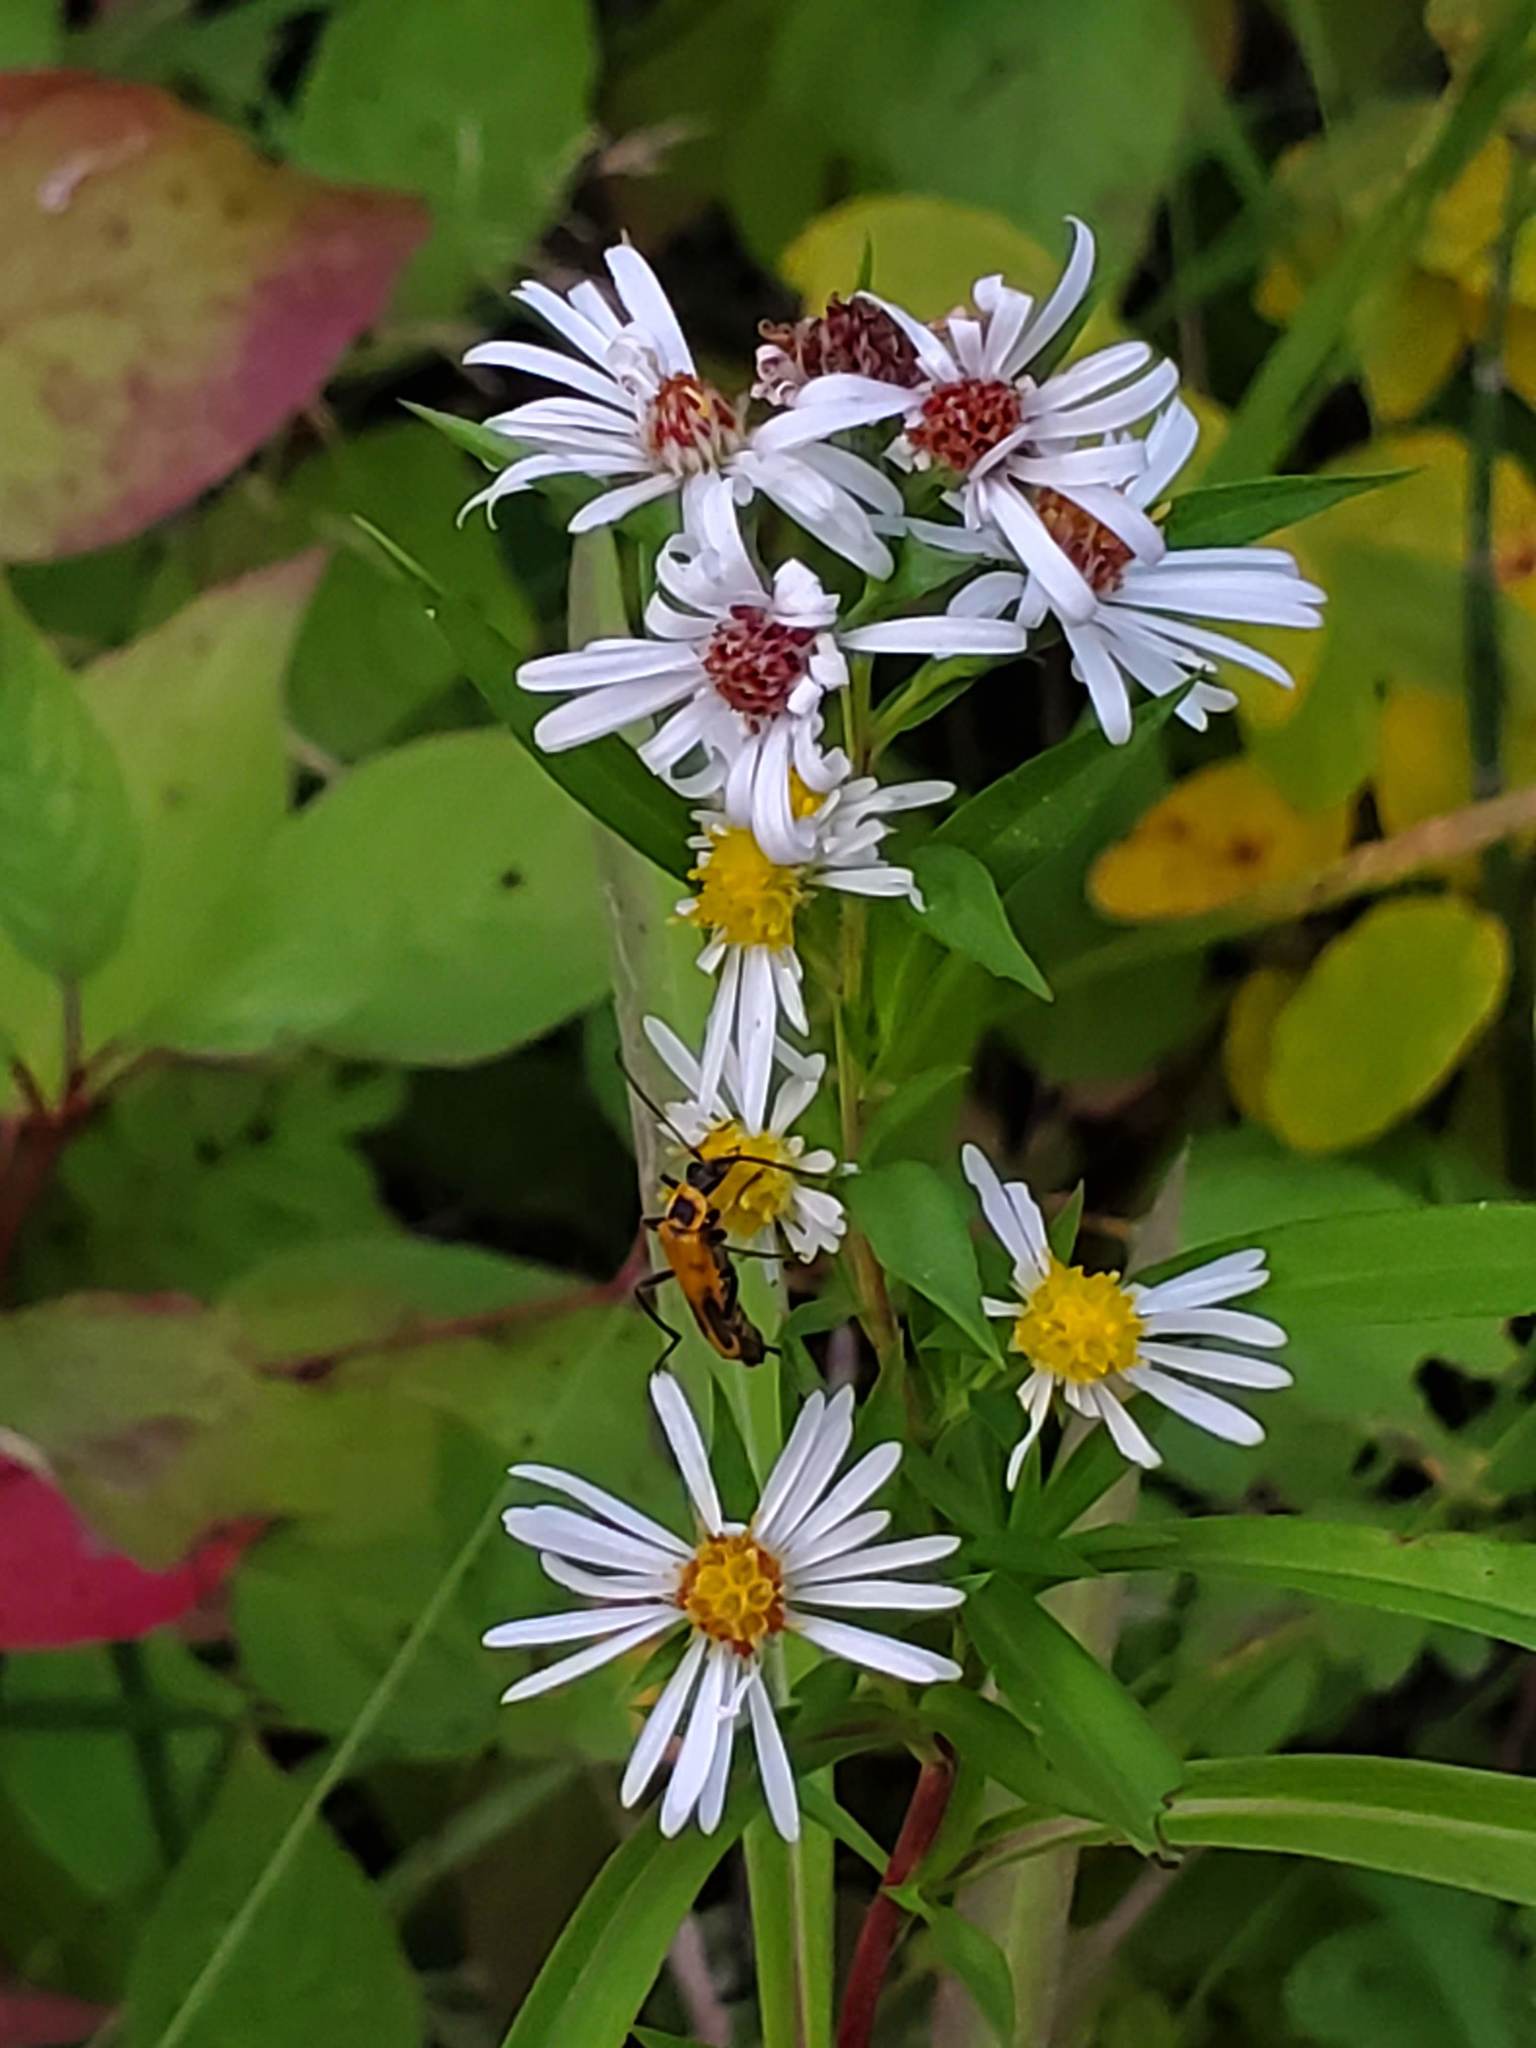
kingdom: Plantae
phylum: Tracheophyta
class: Magnoliopsida
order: Asterales
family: Asteraceae
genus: Symphyotrichum
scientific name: Symphyotrichum lanceolatum
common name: Panicled aster
